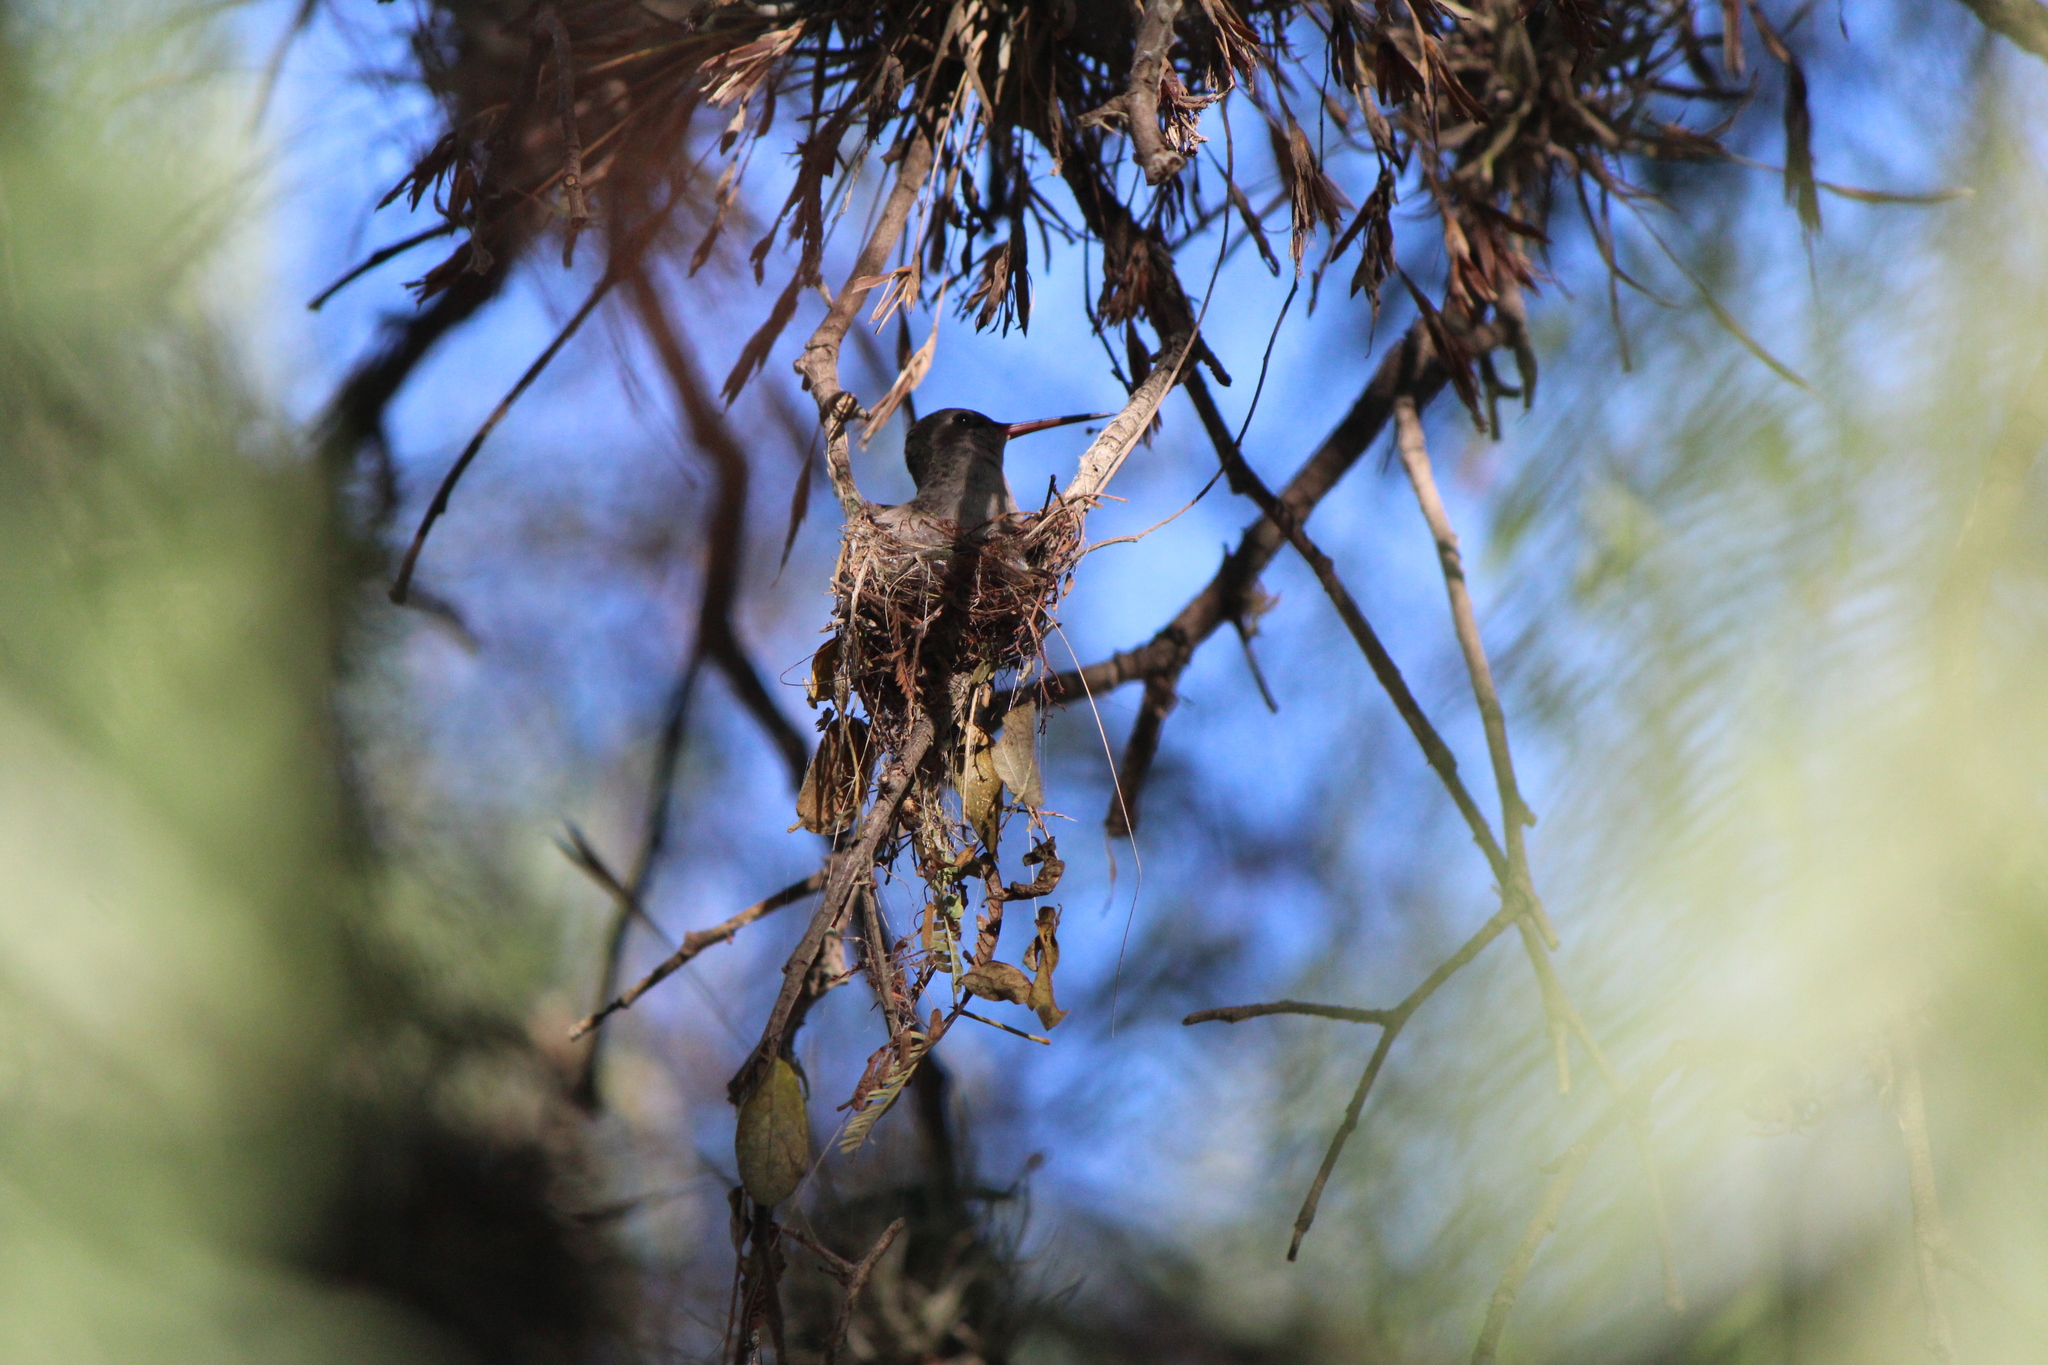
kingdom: Animalia
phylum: Chordata
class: Aves
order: Apodiformes
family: Trochilidae
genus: Cynanthus
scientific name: Cynanthus latirostris
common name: Broad-billed hummingbird
